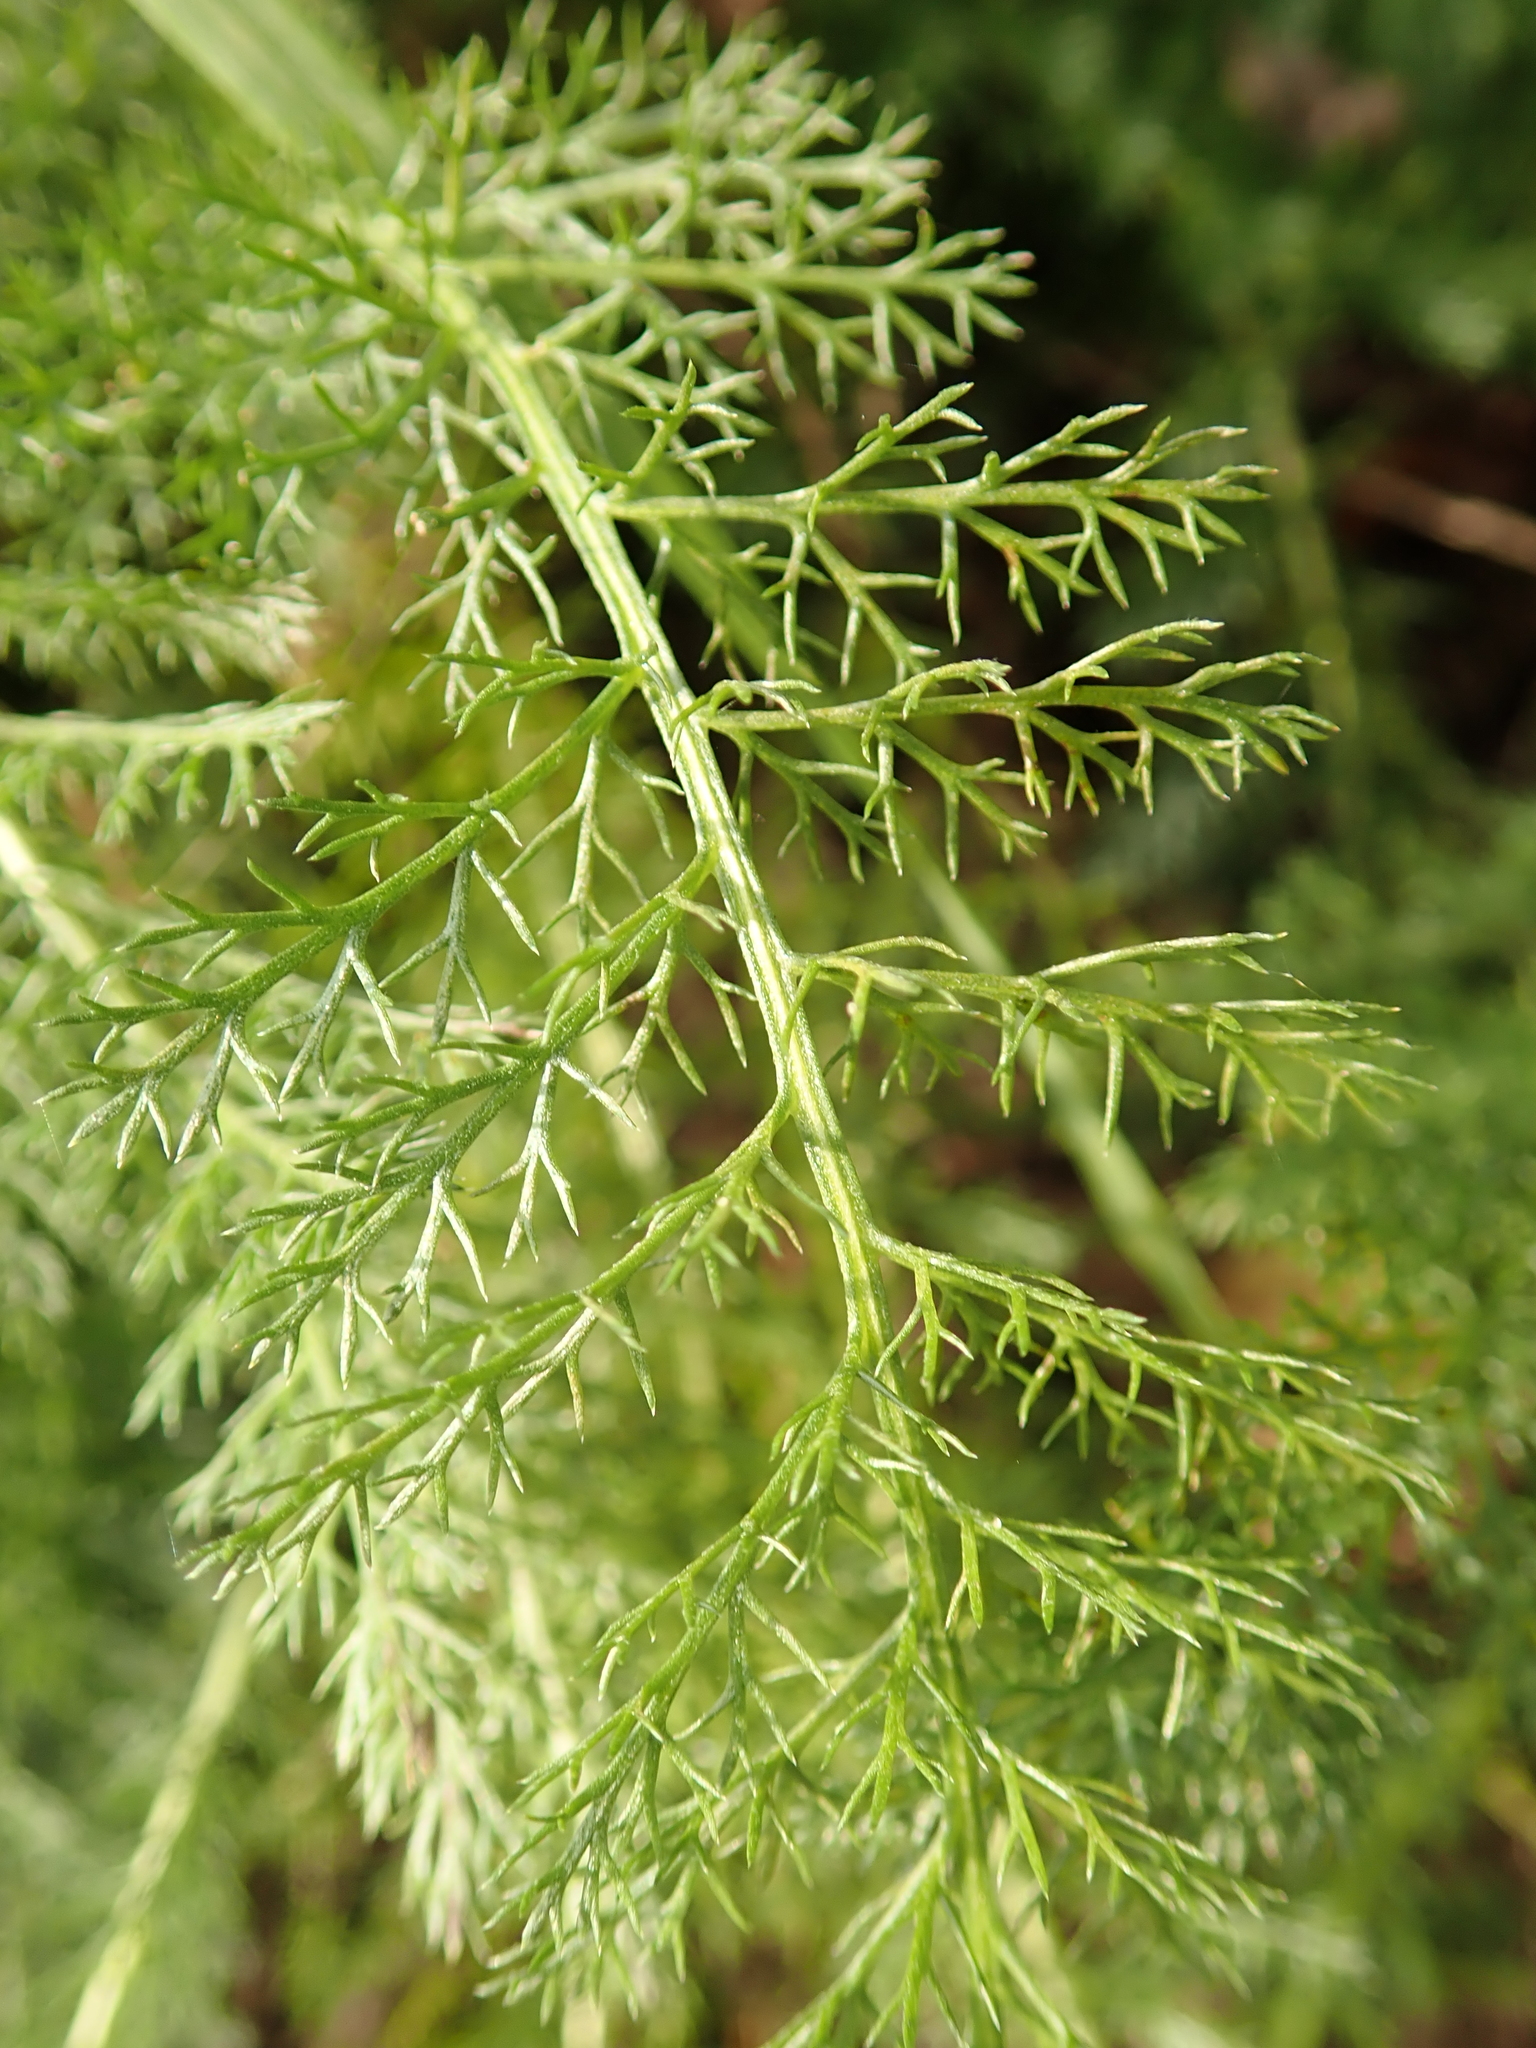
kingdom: Plantae
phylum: Tracheophyta
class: Magnoliopsida
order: Asterales
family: Asteraceae
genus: Achillea
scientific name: Achillea millefolium
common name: Yarrow
